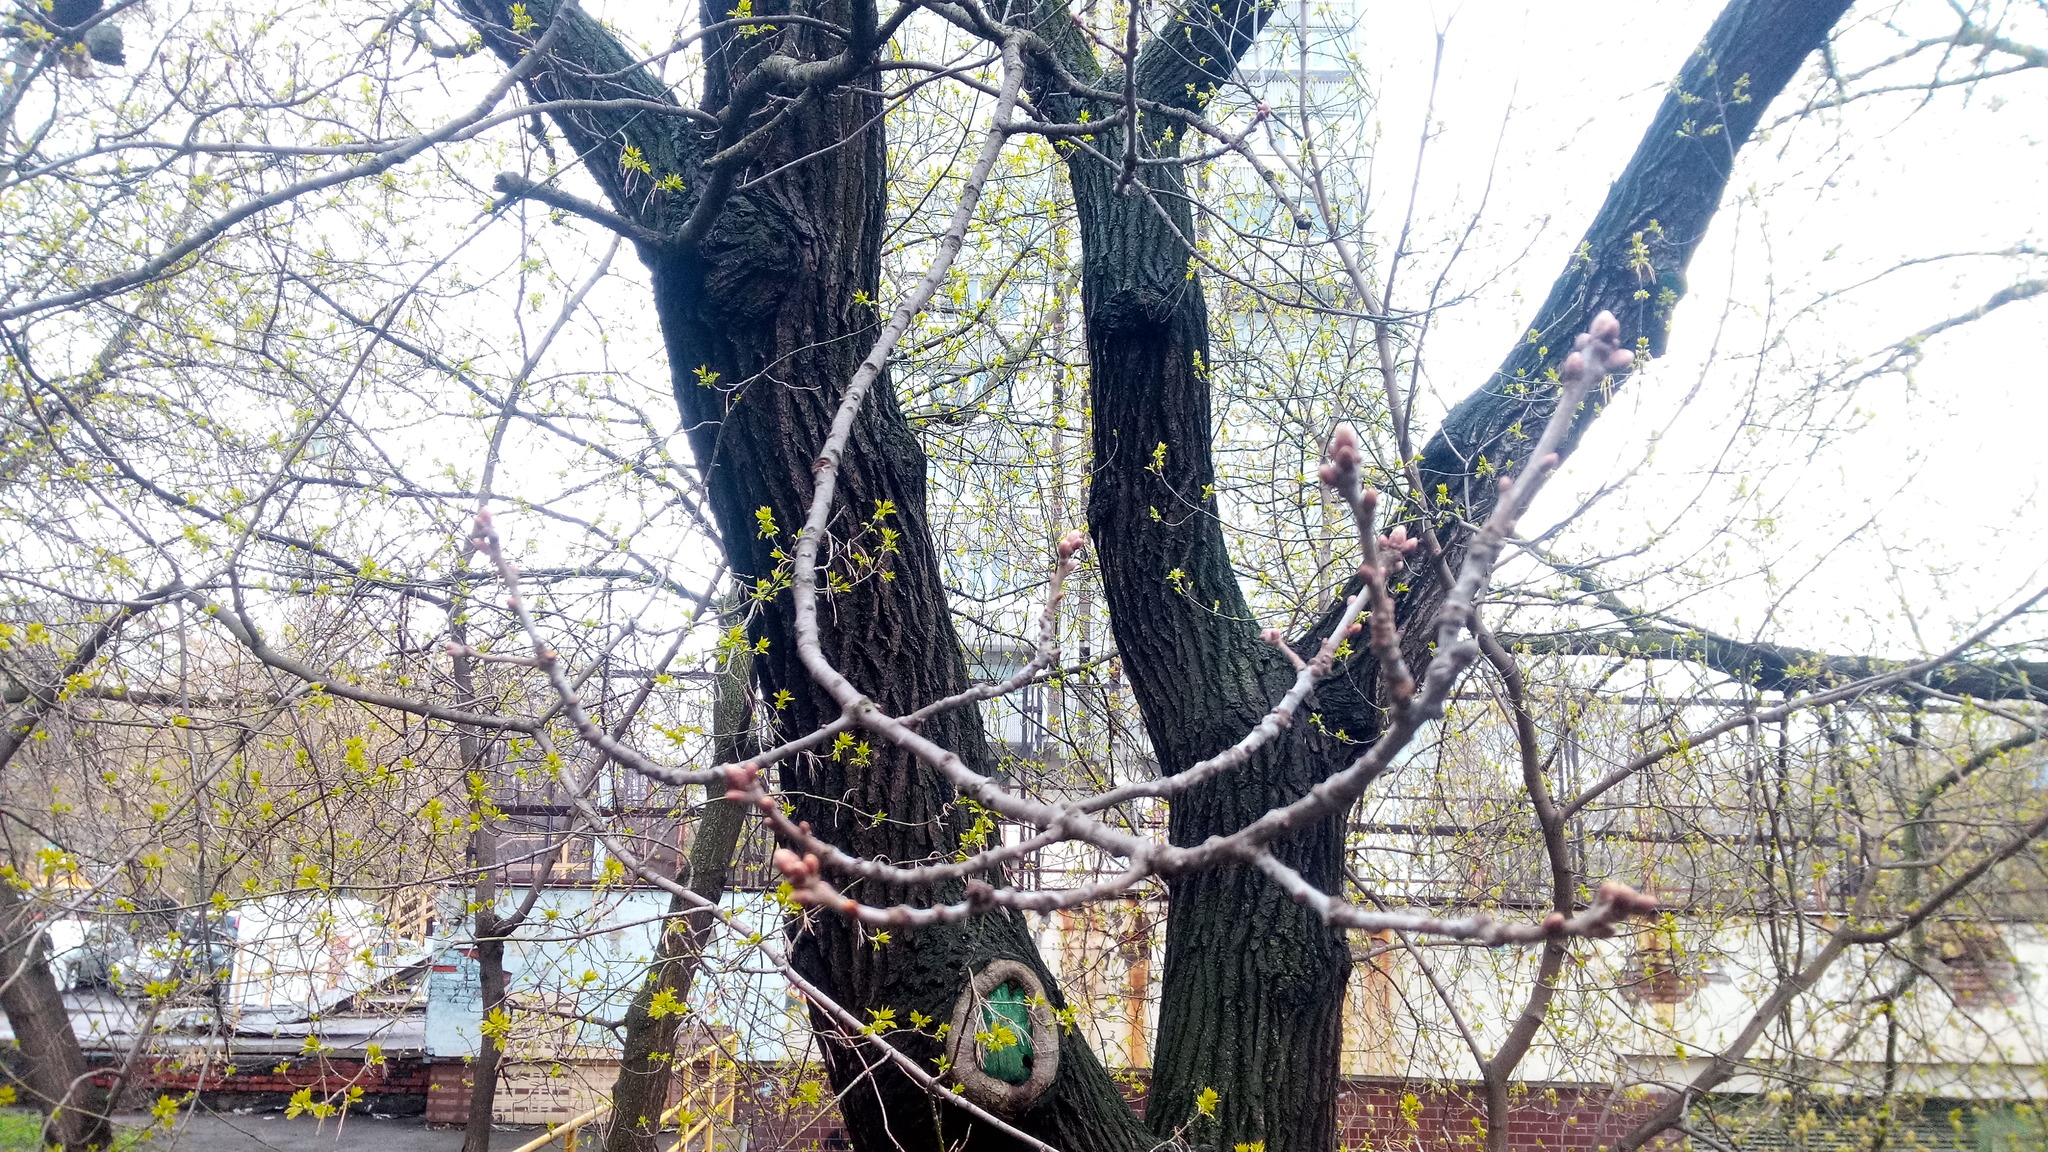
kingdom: Plantae
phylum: Tracheophyta
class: Magnoliopsida
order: Fagales
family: Fagaceae
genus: Quercus
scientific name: Quercus robur
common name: Pedunculate oak
